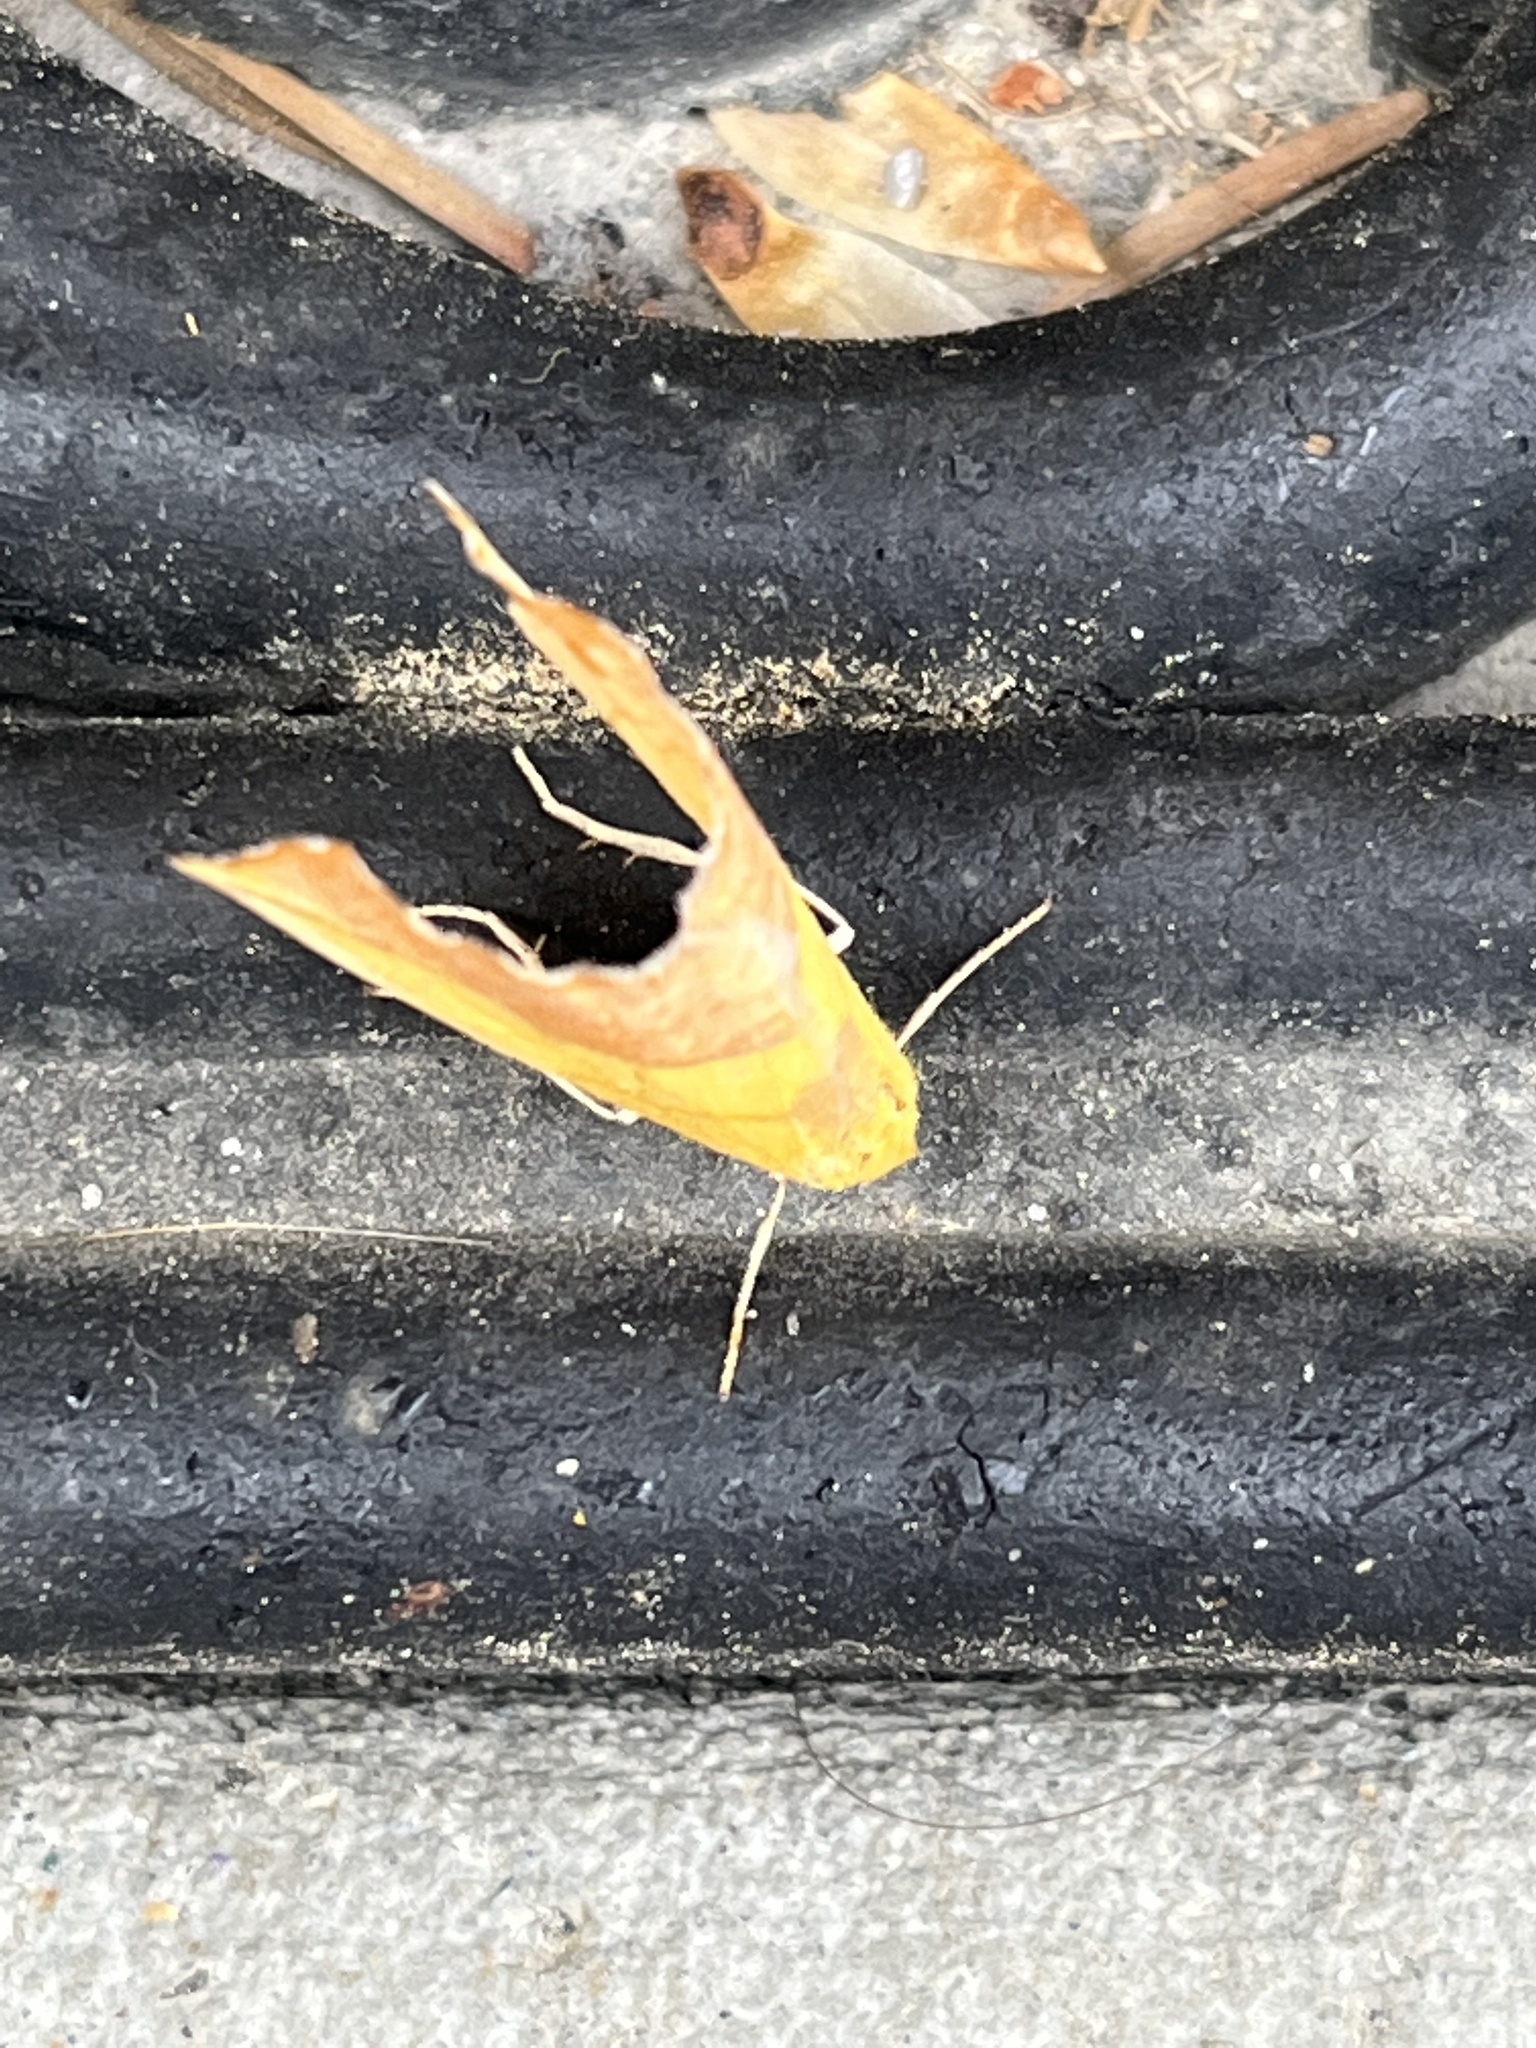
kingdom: Animalia
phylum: Arthropoda
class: Insecta
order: Lepidoptera
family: Geometridae
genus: Sicya
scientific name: Sicya macularia
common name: Sharp-lined yellow
